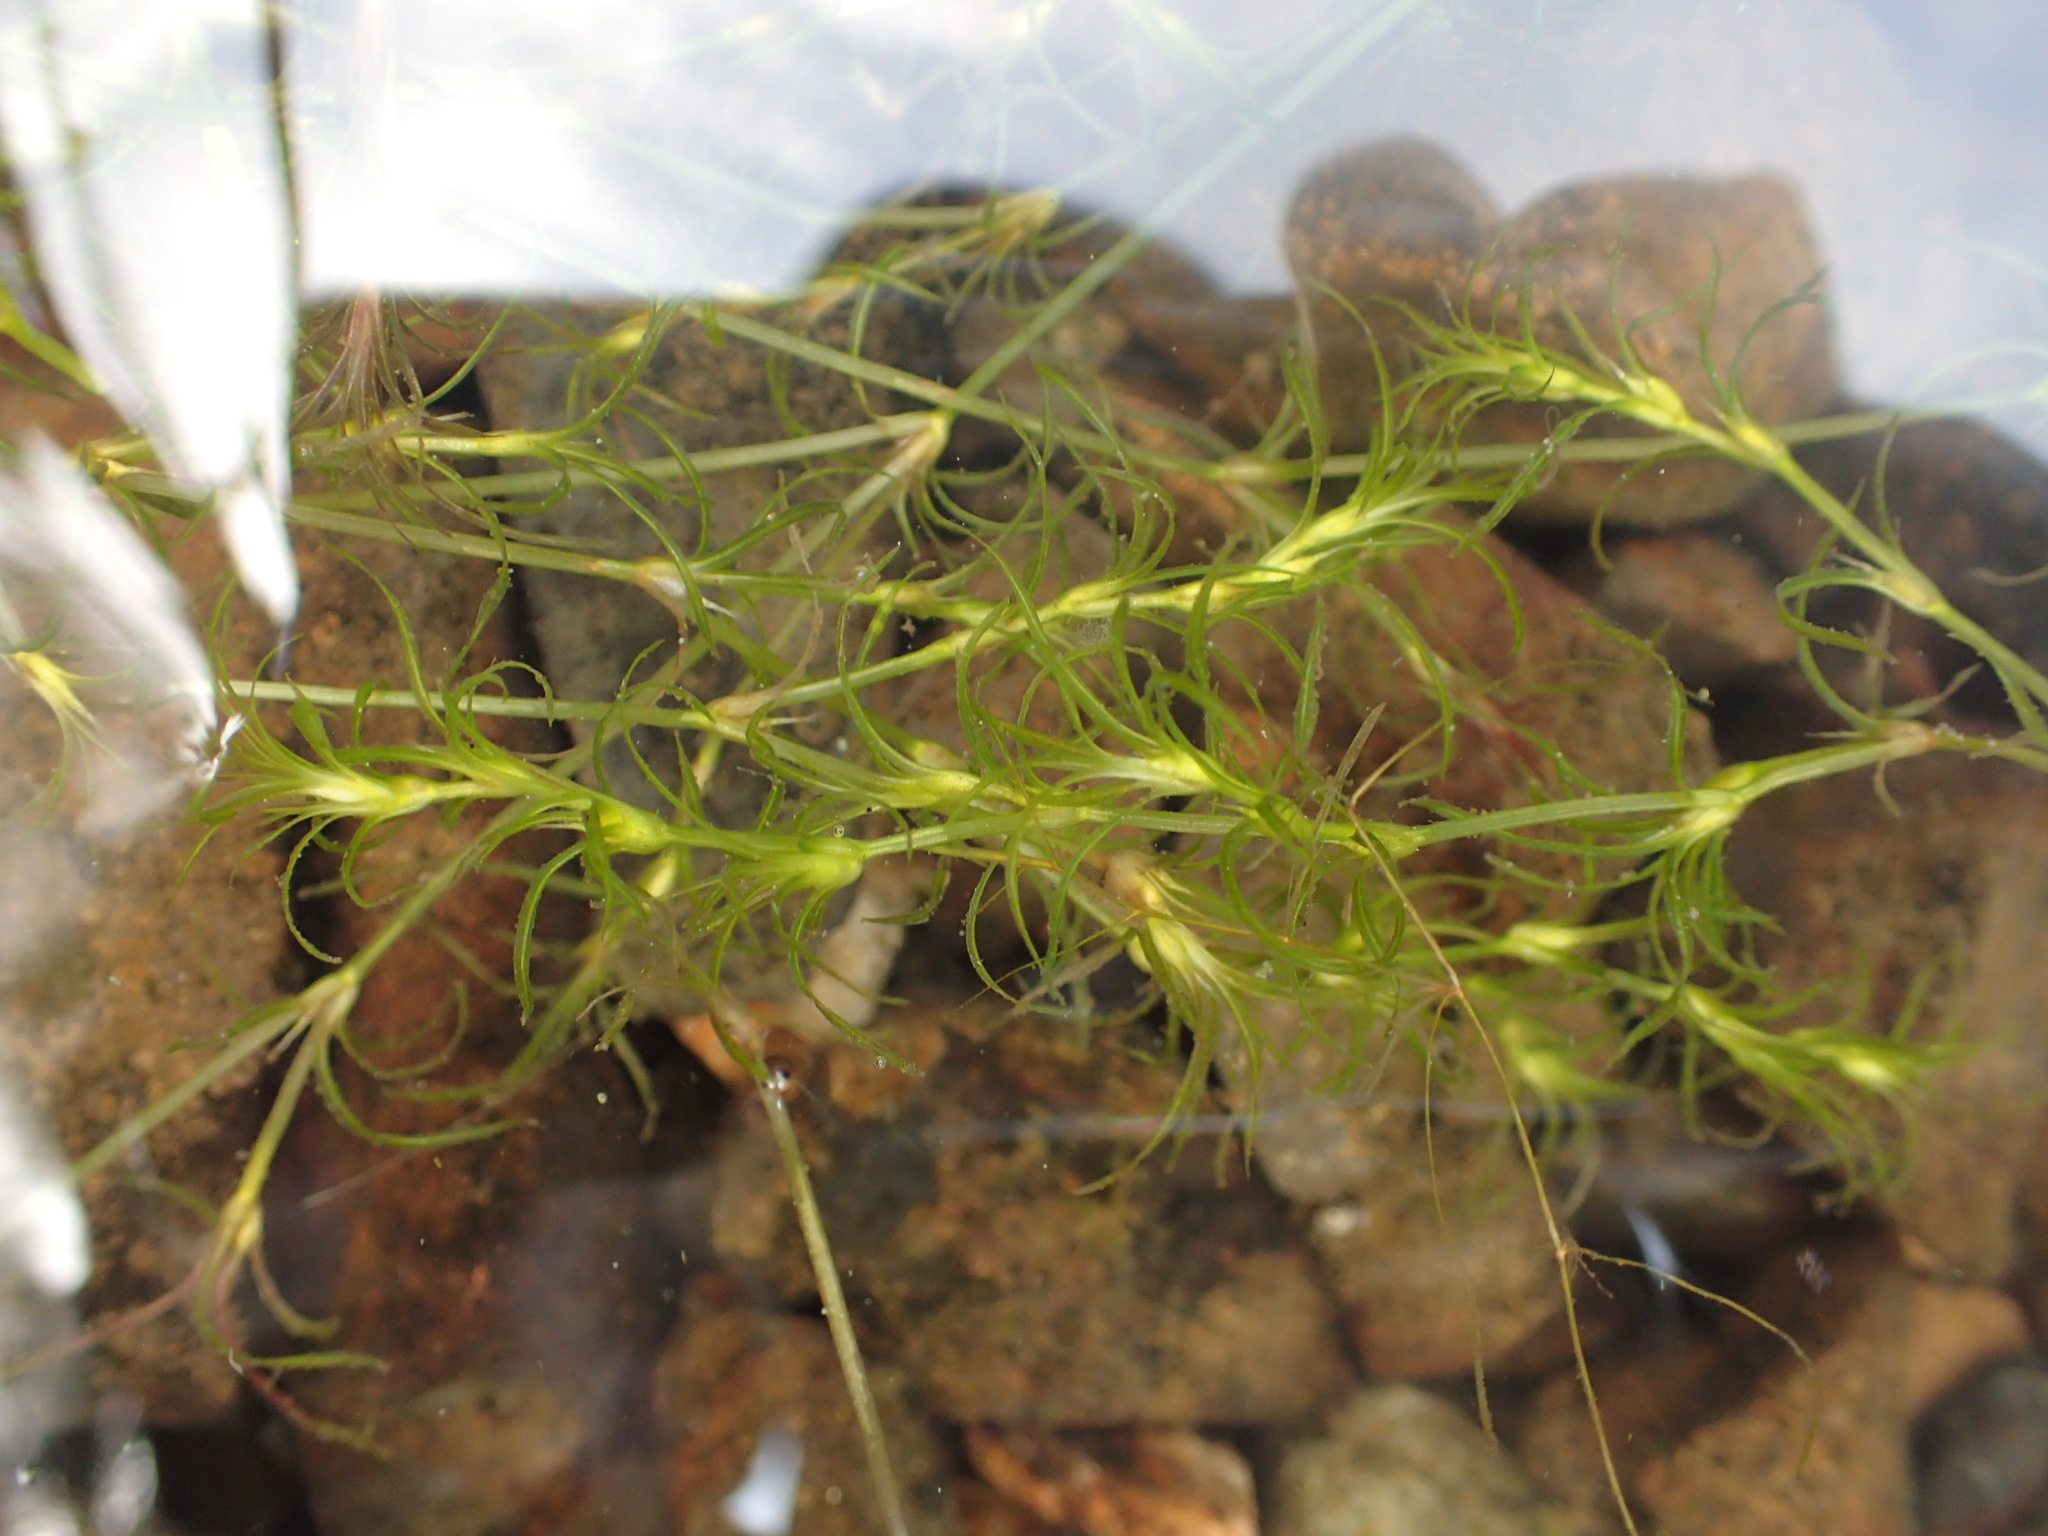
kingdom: Plantae
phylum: Tracheophyta
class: Liliopsida
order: Alismatales
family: Hydrocharitaceae
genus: Najas
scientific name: Najas flexilis
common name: Slender naiad
